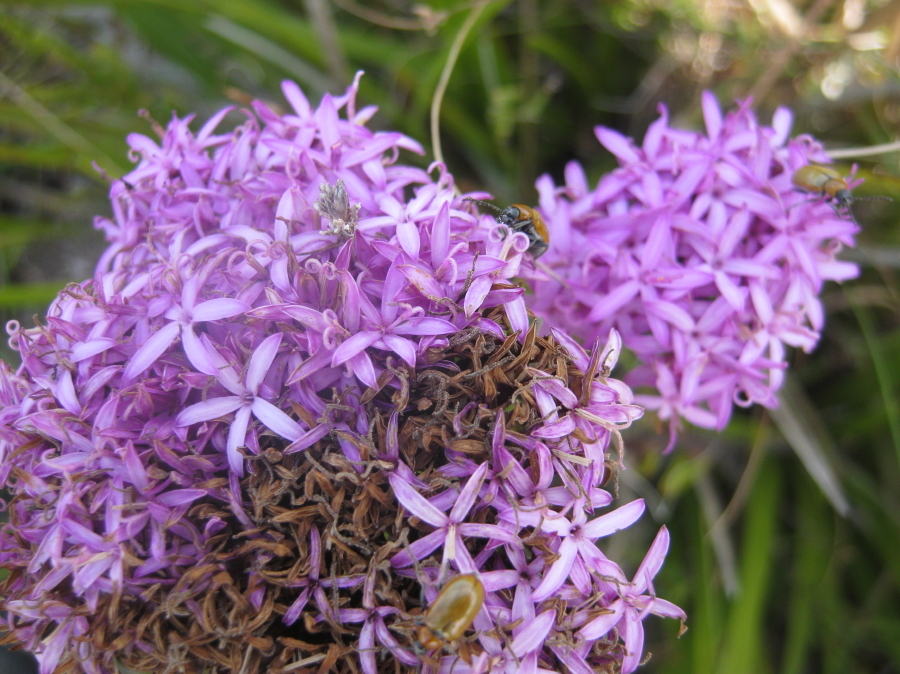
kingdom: Plantae
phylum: Tracheophyta
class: Magnoliopsida
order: Asterales
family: Asteraceae
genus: Corymbium
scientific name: Corymbium africanum
